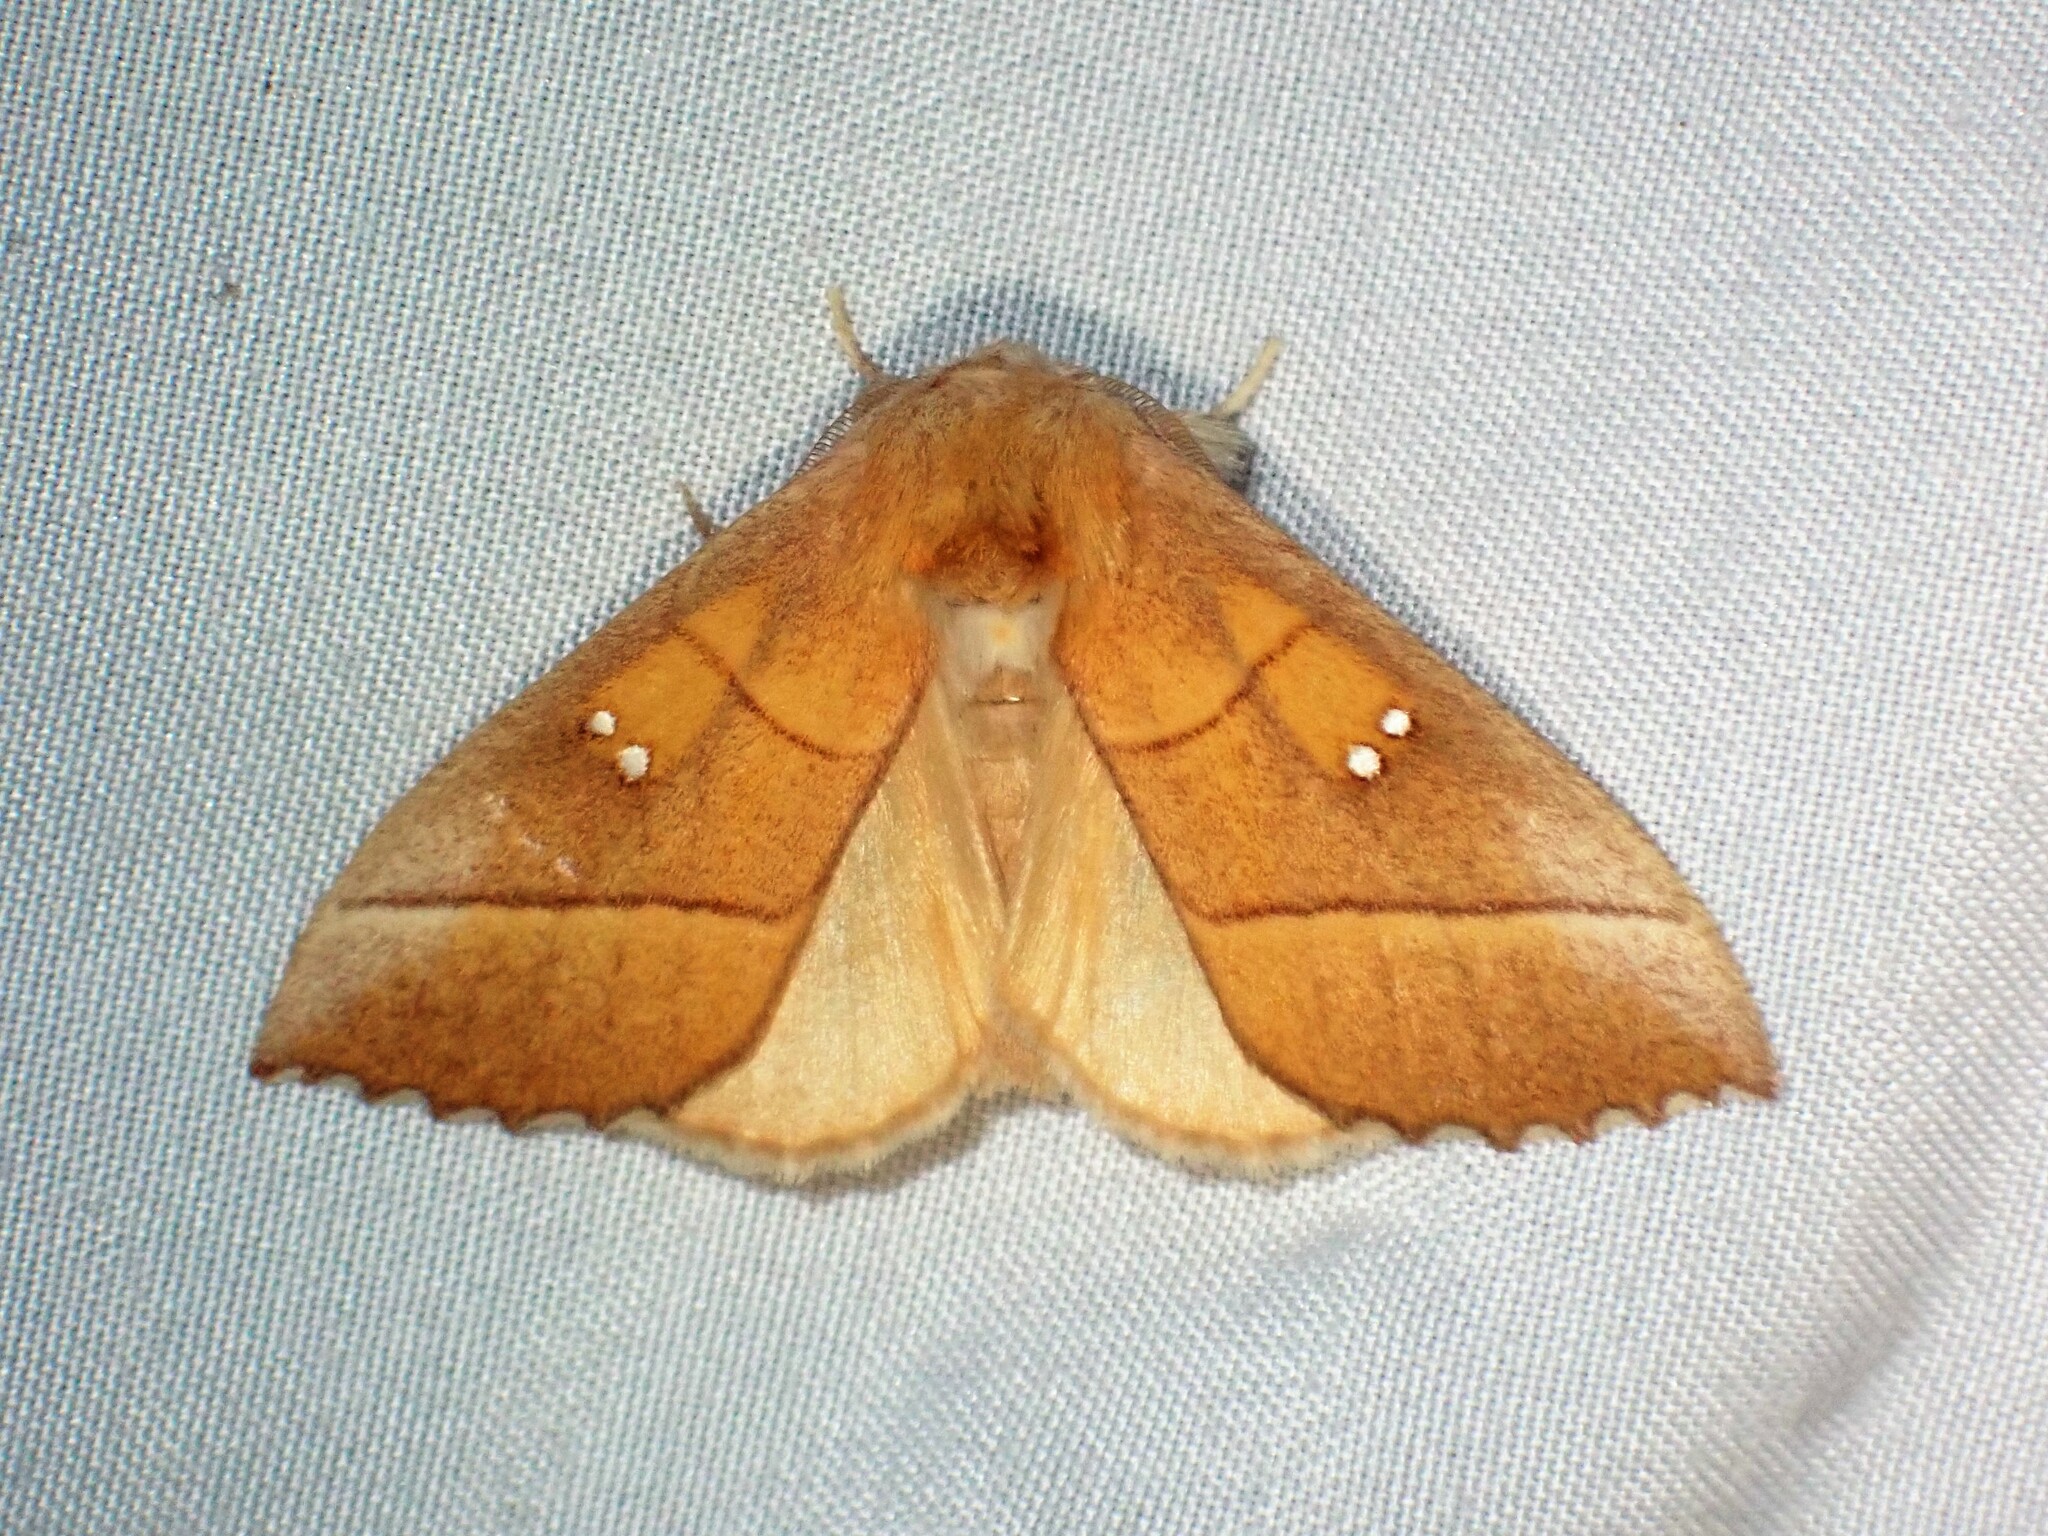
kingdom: Animalia
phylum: Arthropoda
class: Insecta
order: Lepidoptera
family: Notodontidae
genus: Nadata
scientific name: Nadata gibbosa
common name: White-dotted prominent
